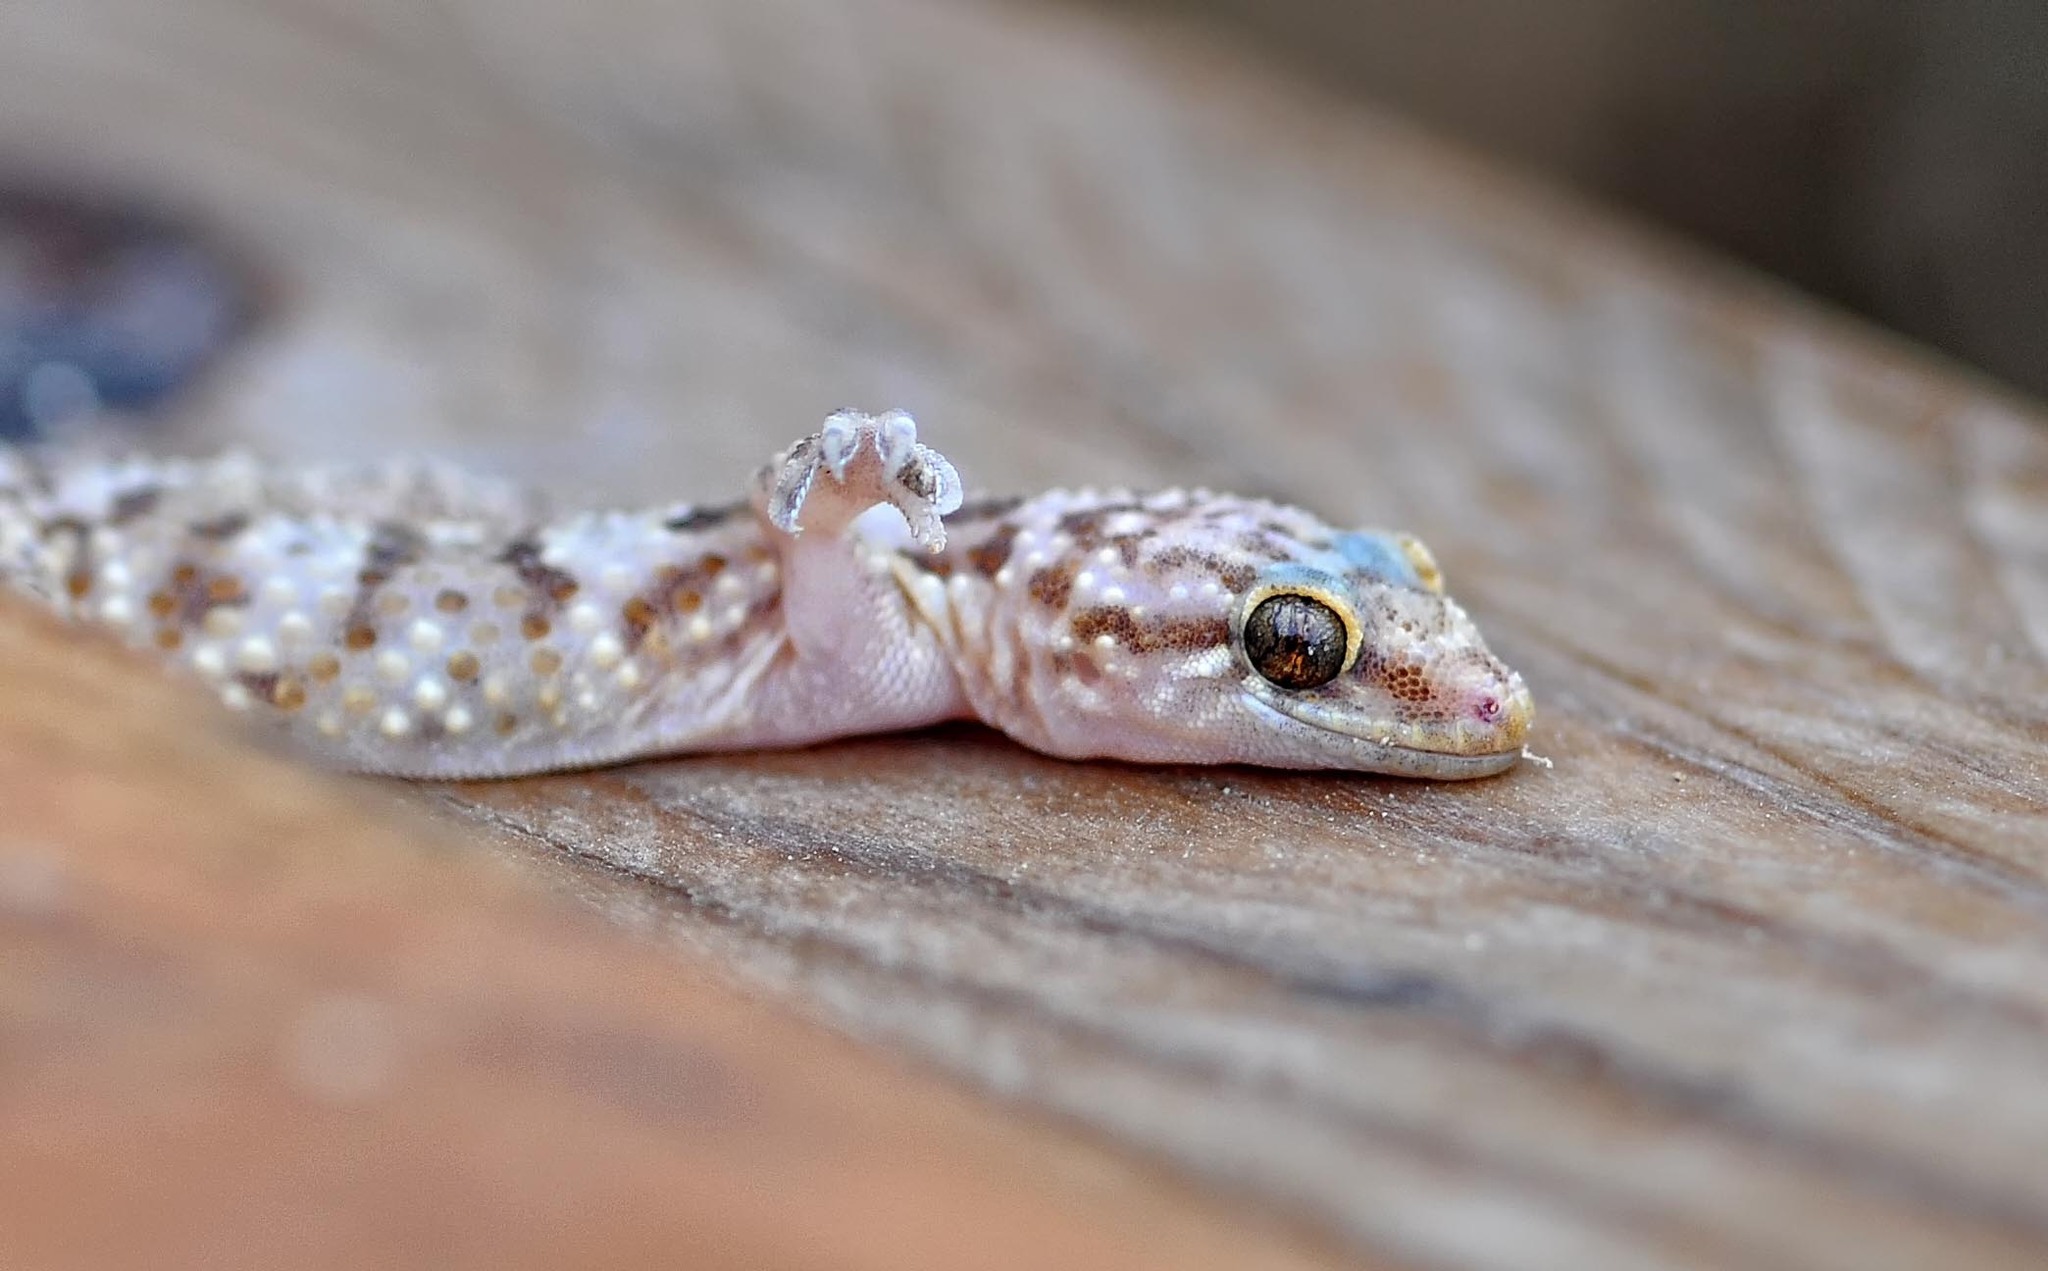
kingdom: Animalia
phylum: Chordata
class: Squamata
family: Gekkonidae
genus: Hemidactylus
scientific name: Hemidactylus turcicus
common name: Turkish gecko
